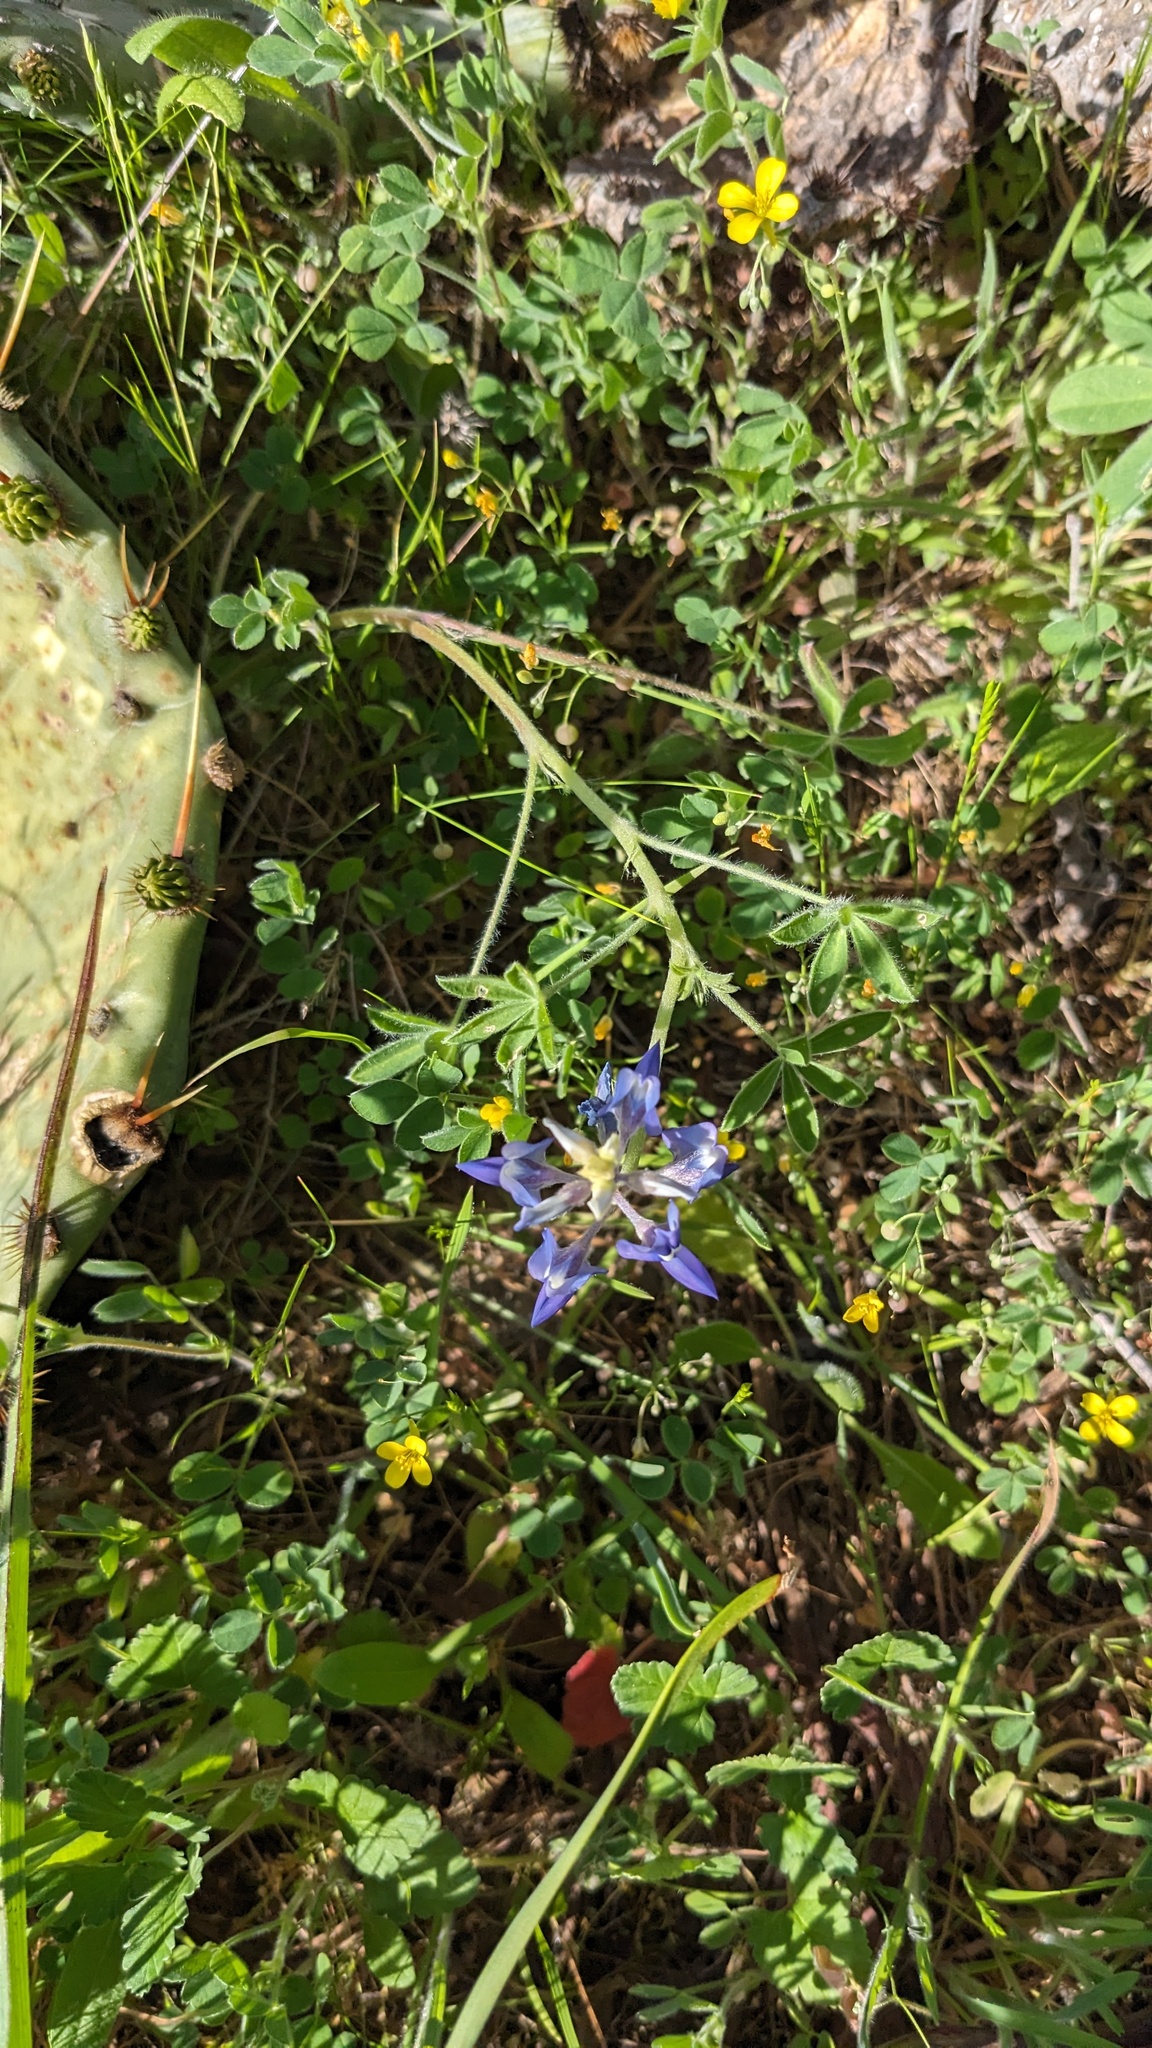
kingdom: Plantae
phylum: Tracheophyta
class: Magnoliopsida
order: Fabales
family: Fabaceae
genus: Lupinus
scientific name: Lupinus texensis
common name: Texas bluebonnet
